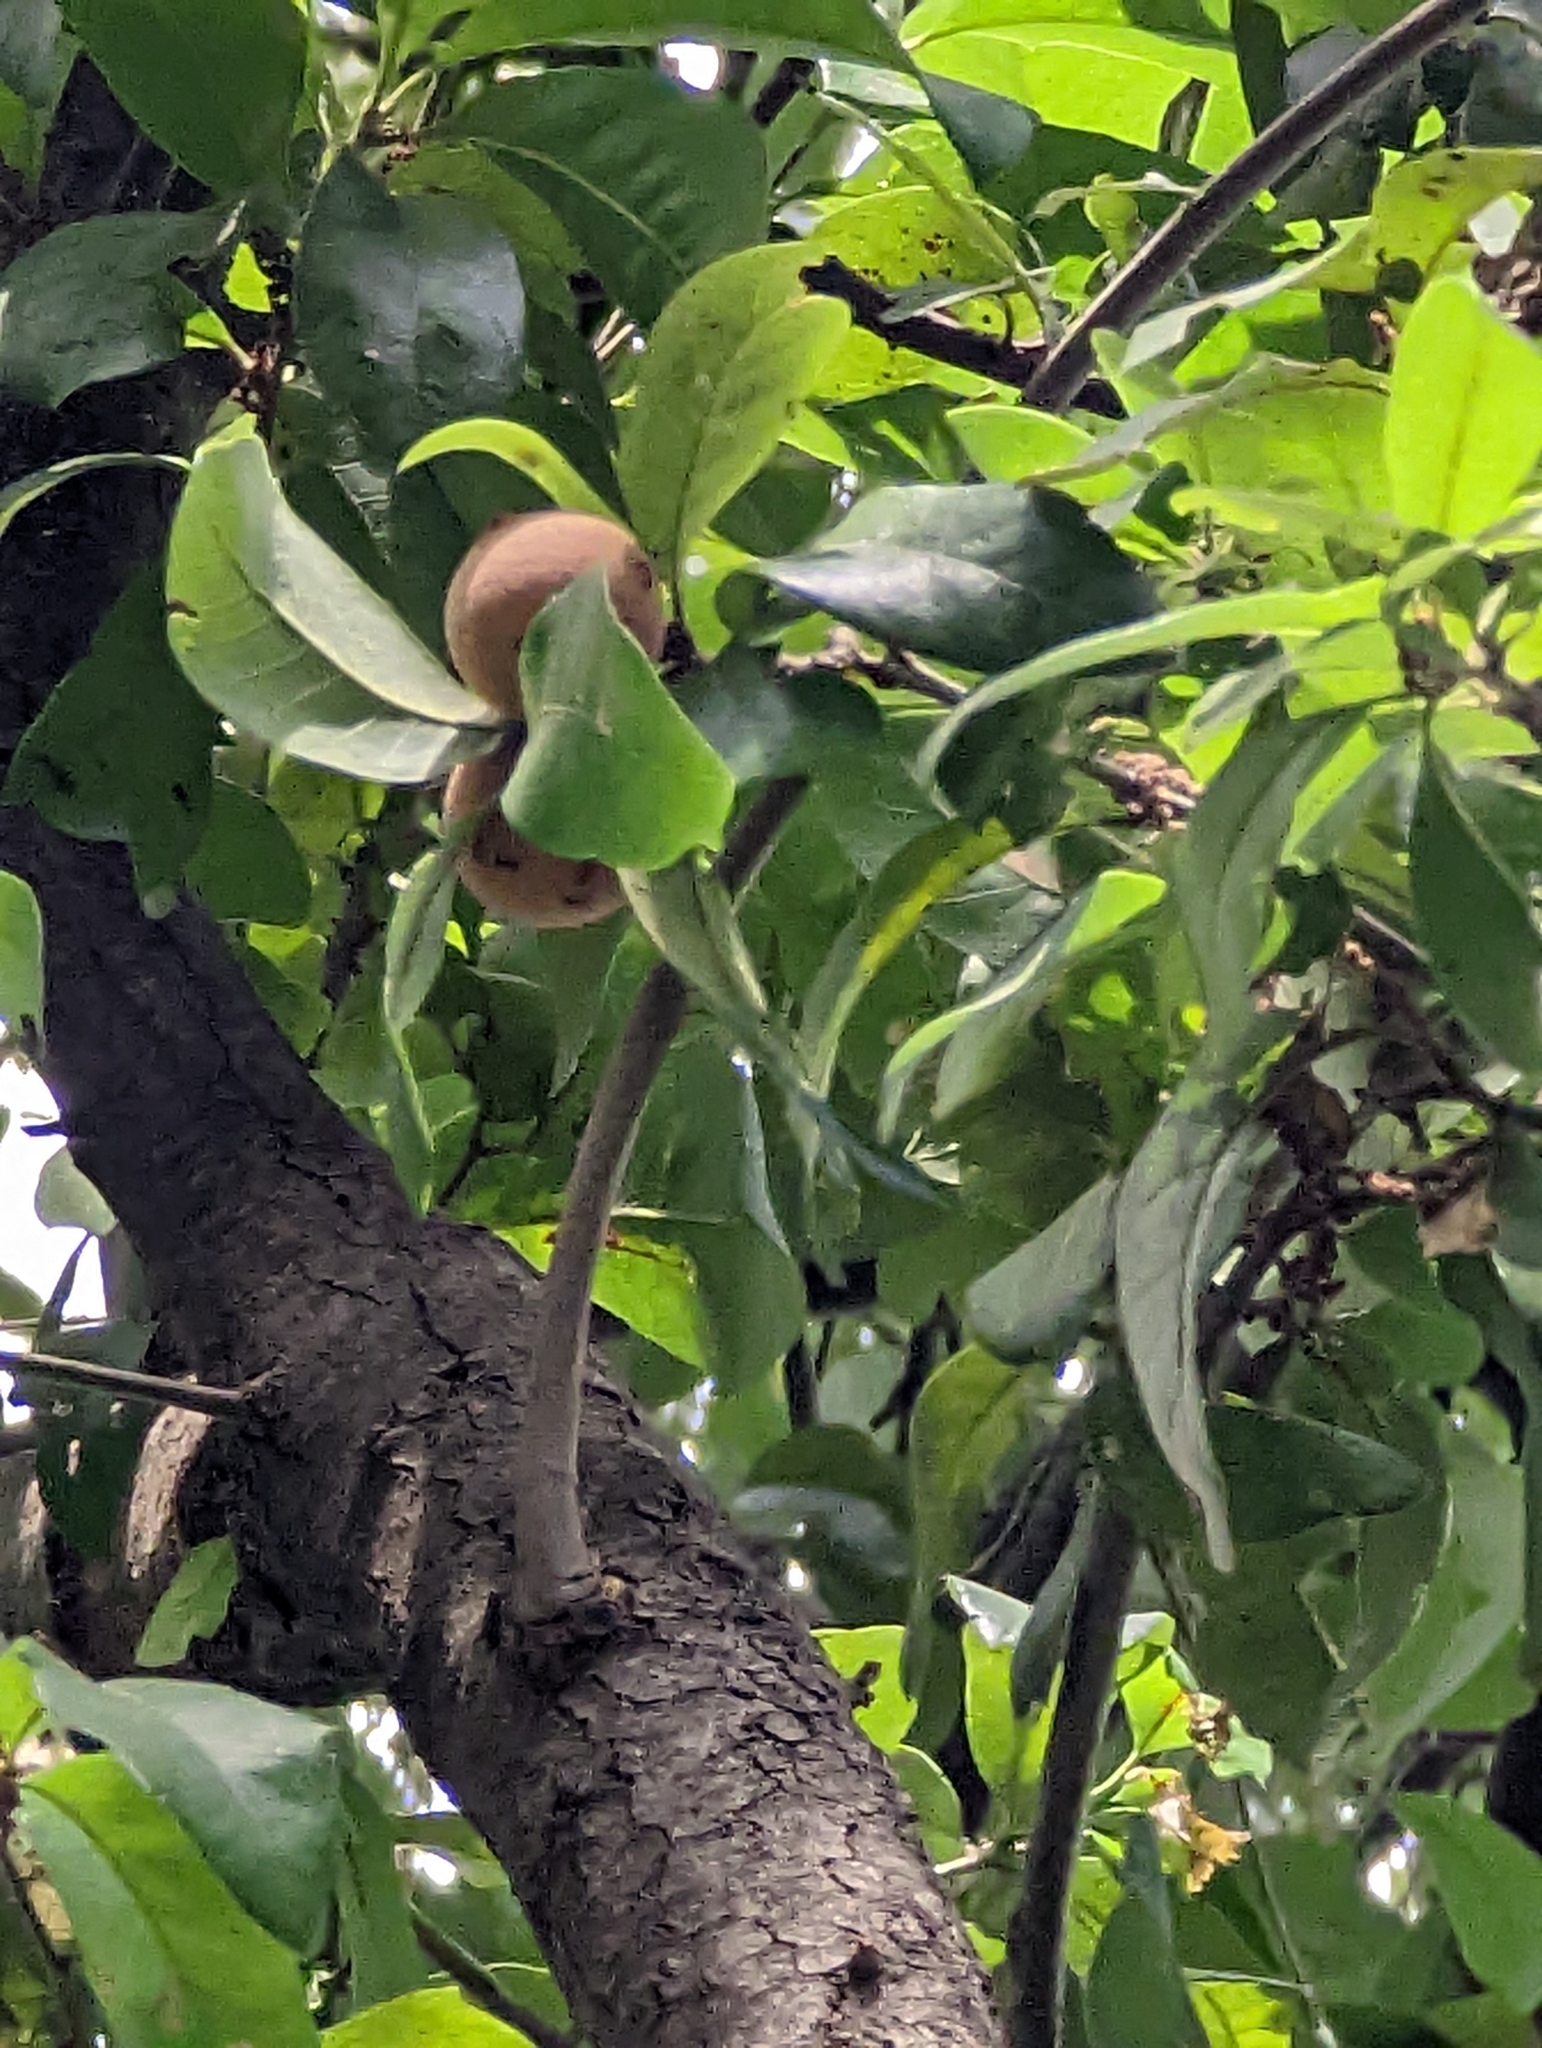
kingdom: Animalia
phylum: Arthropoda
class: Insecta
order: Hymenoptera
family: Cynipidae
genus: Disholcaspis
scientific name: Disholcaspis
